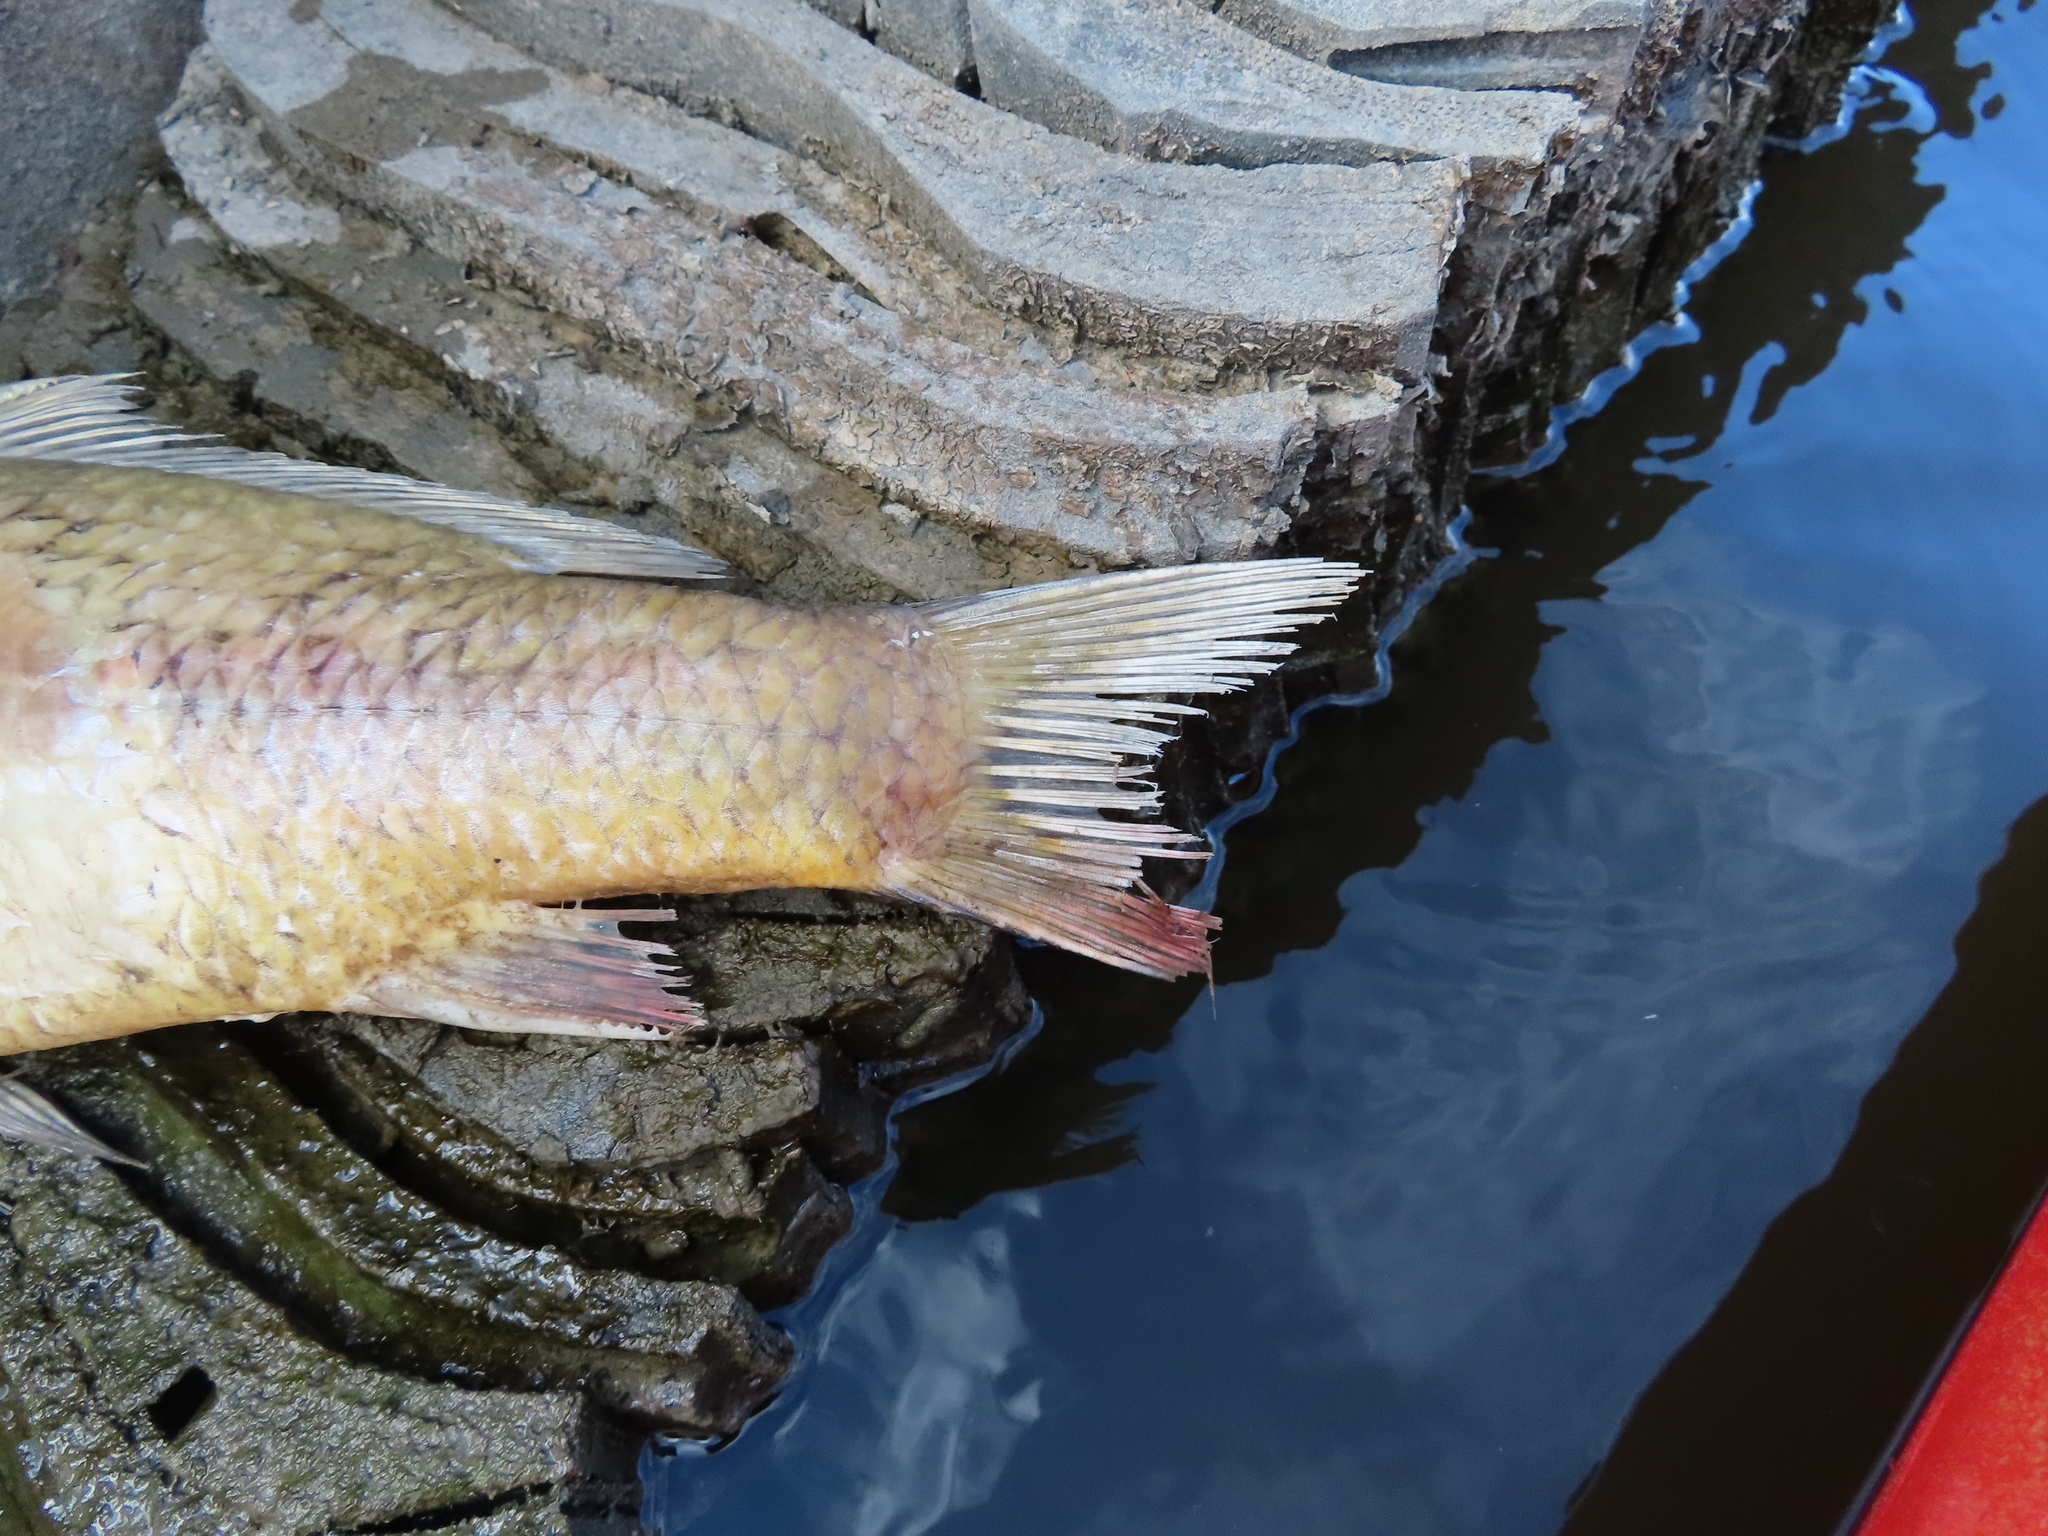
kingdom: Animalia
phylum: Chordata
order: Cypriniformes
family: Cyprinidae
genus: Cyprinus
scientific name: Cyprinus carpio
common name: Common carp
